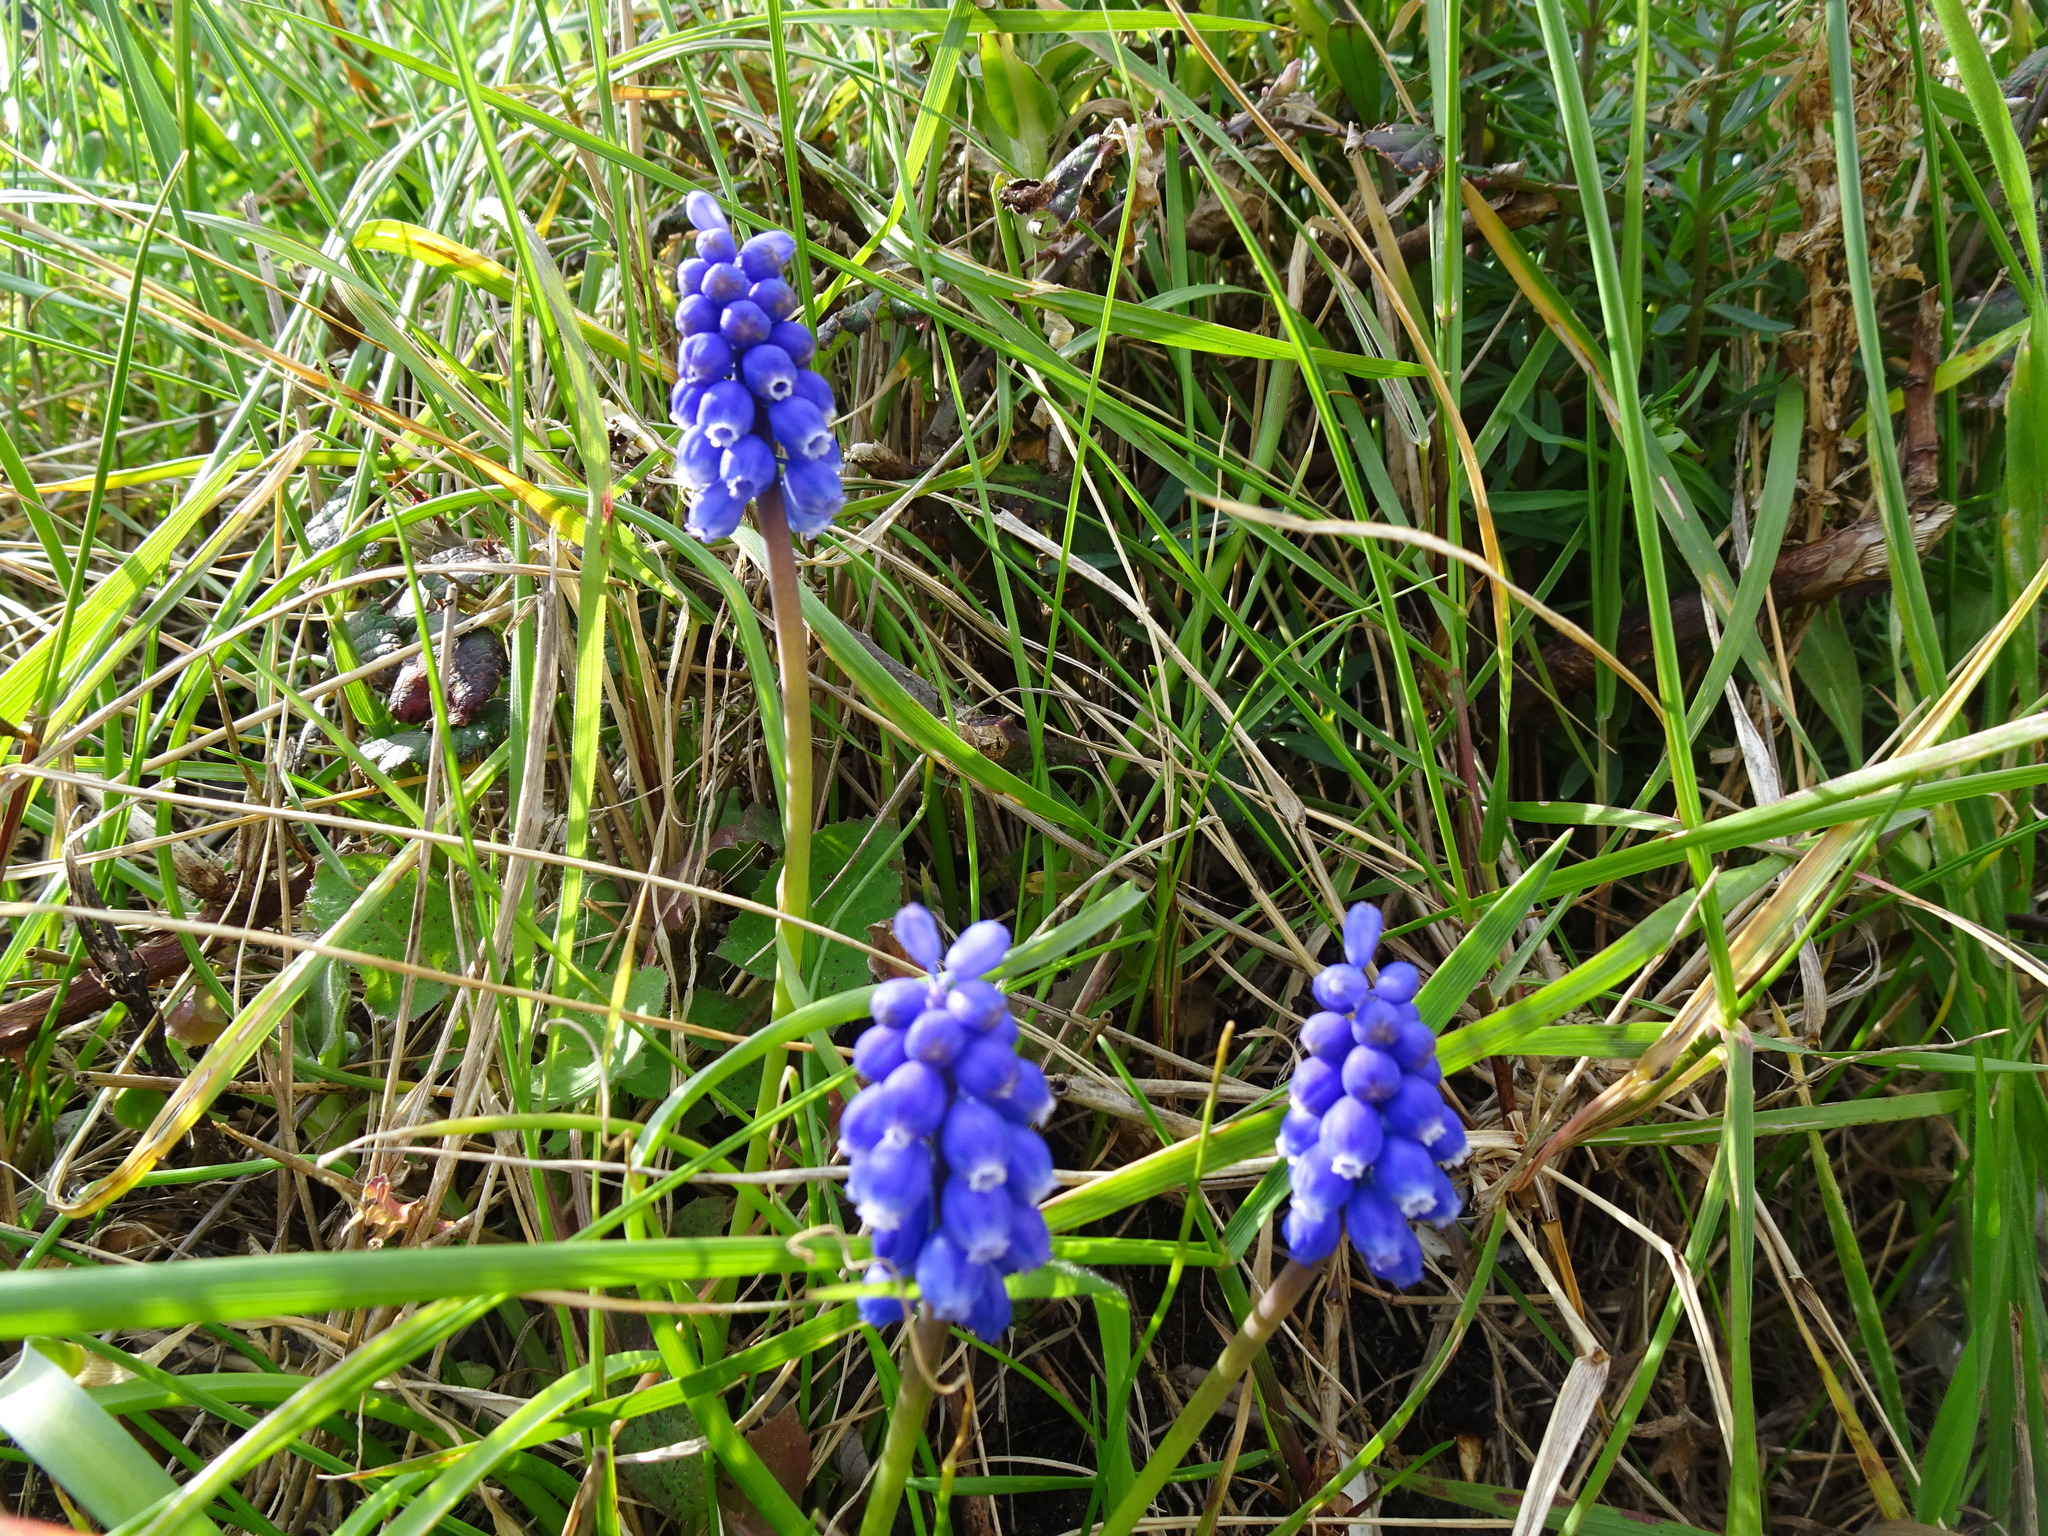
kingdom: Plantae
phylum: Tracheophyta
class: Liliopsida
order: Asparagales
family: Asparagaceae
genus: Muscari
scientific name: Muscari armeniacum
